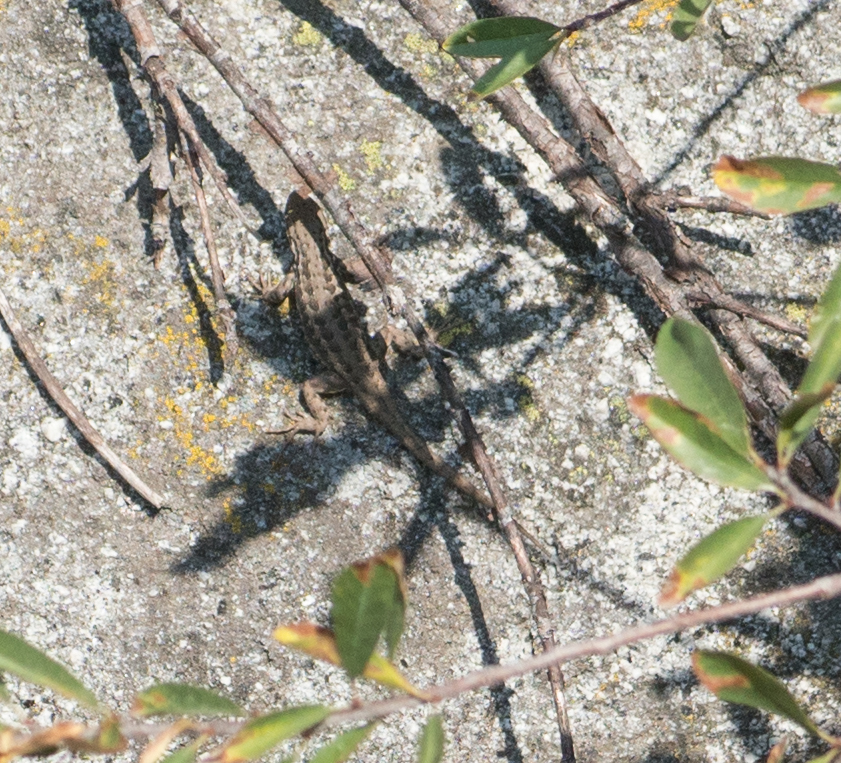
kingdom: Animalia
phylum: Chordata
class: Squamata
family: Phrynosomatidae
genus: Sceloporus
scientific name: Sceloporus graciosus
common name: Sagebrush lizard
